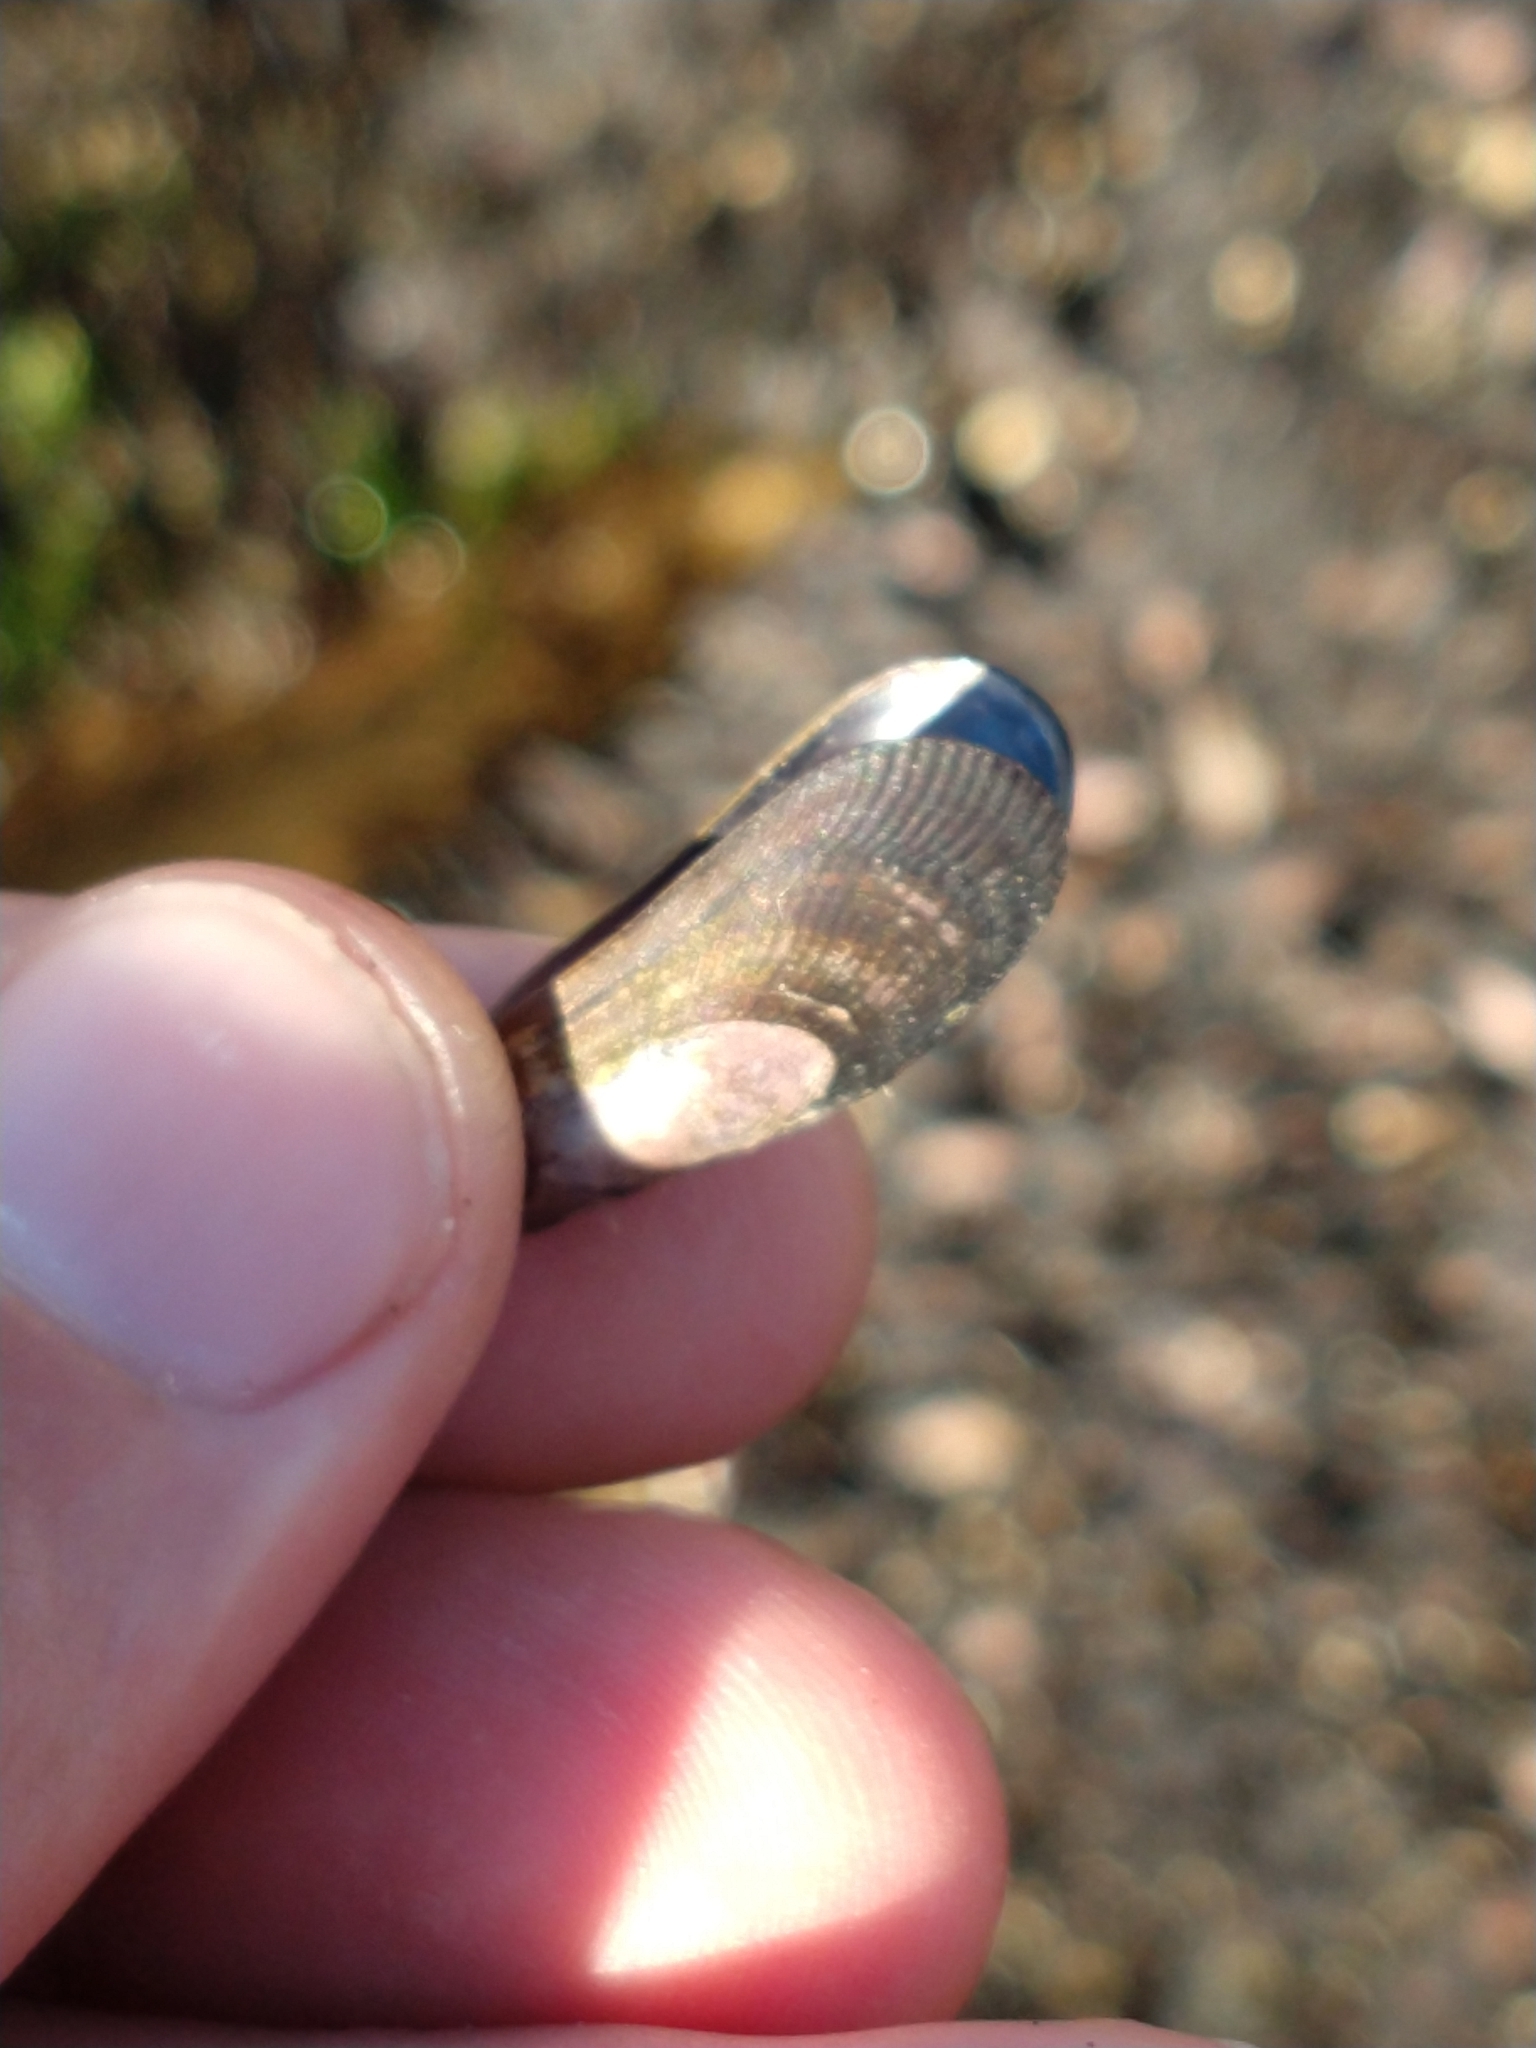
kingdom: Animalia
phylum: Mollusca
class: Bivalvia
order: Mytilida
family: Mytilidae
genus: Brachidontes
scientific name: Brachidontes rodriguezii
